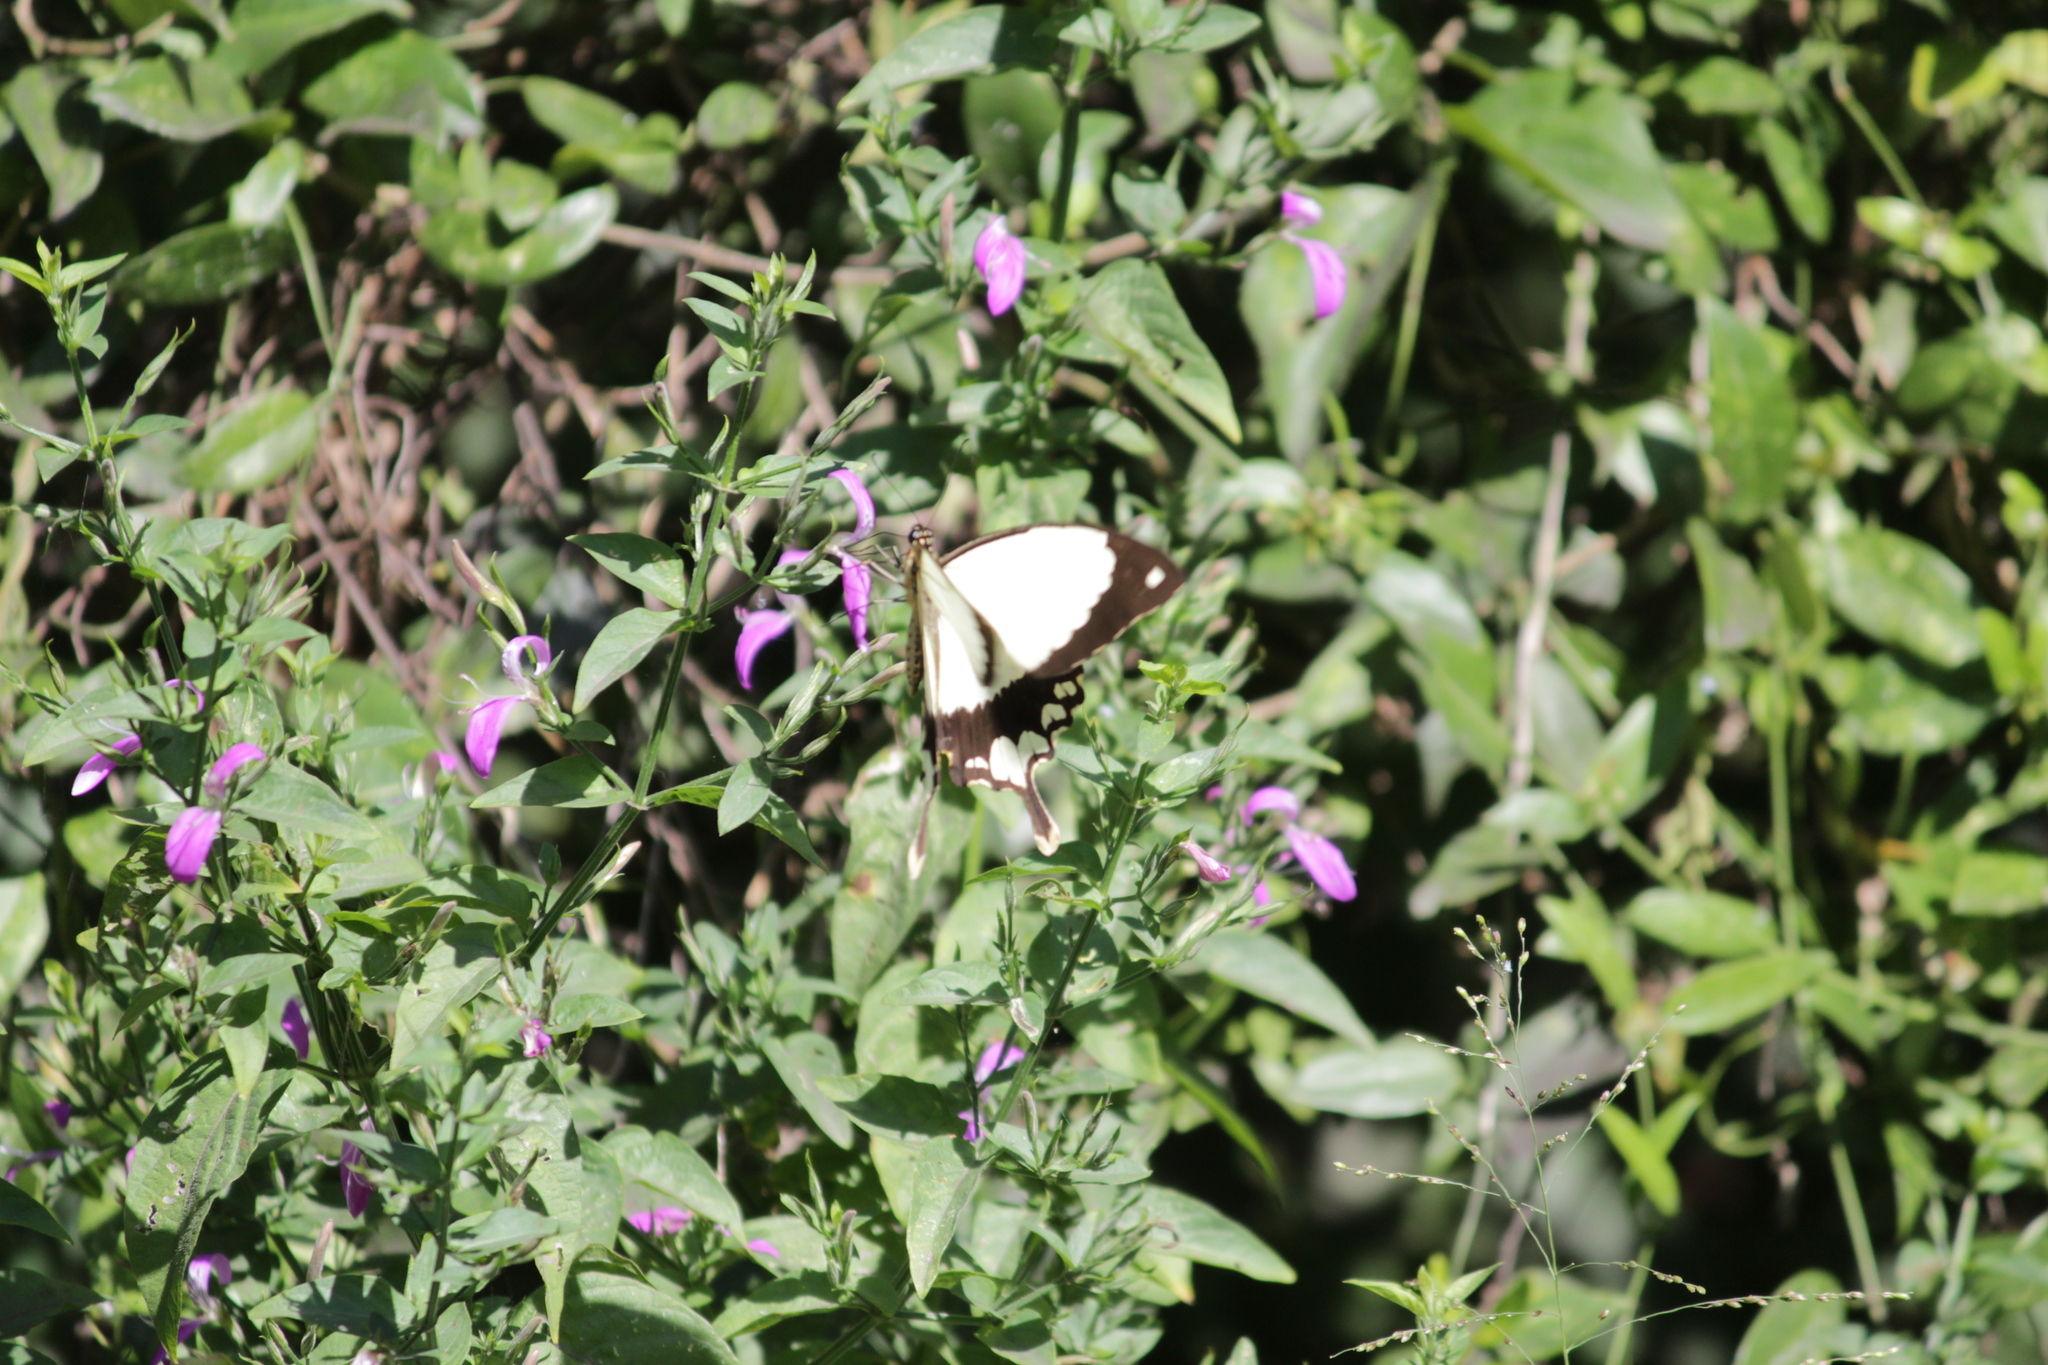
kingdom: Animalia
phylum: Arthropoda
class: Insecta
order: Lepidoptera
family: Papilionidae
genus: Papilio
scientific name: Papilio dardanus
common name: Flying handkerchief
